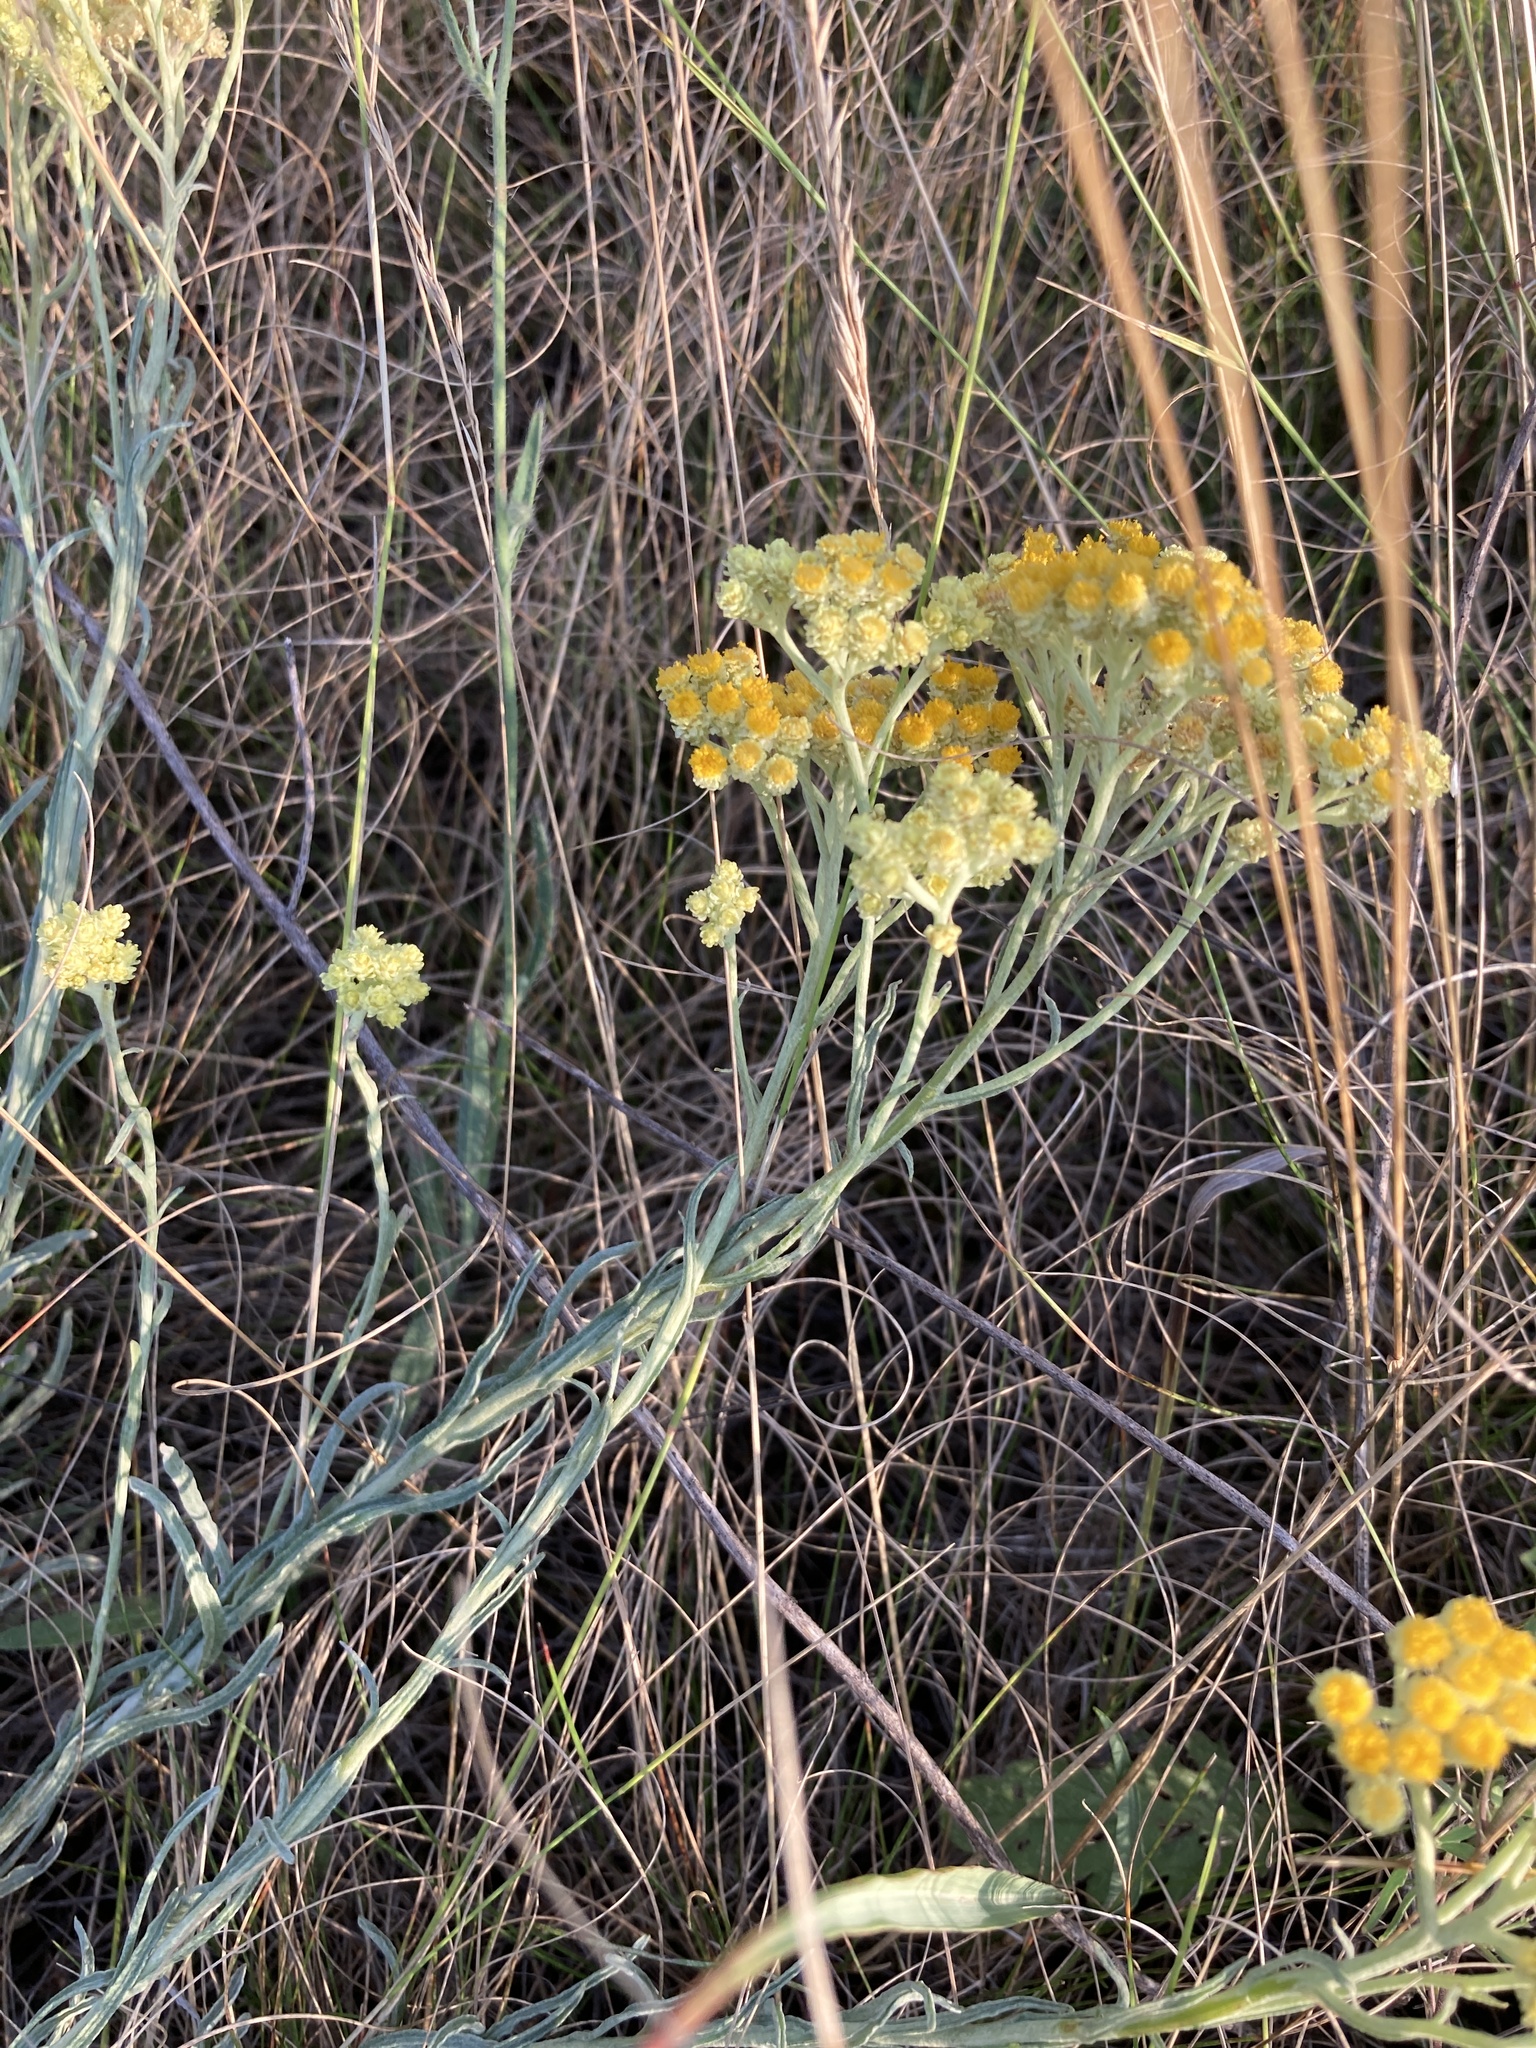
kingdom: Plantae
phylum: Tracheophyta
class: Magnoliopsida
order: Asterales
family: Asteraceae
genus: Helichrysum
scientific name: Helichrysum arenarium
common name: Strawflower
